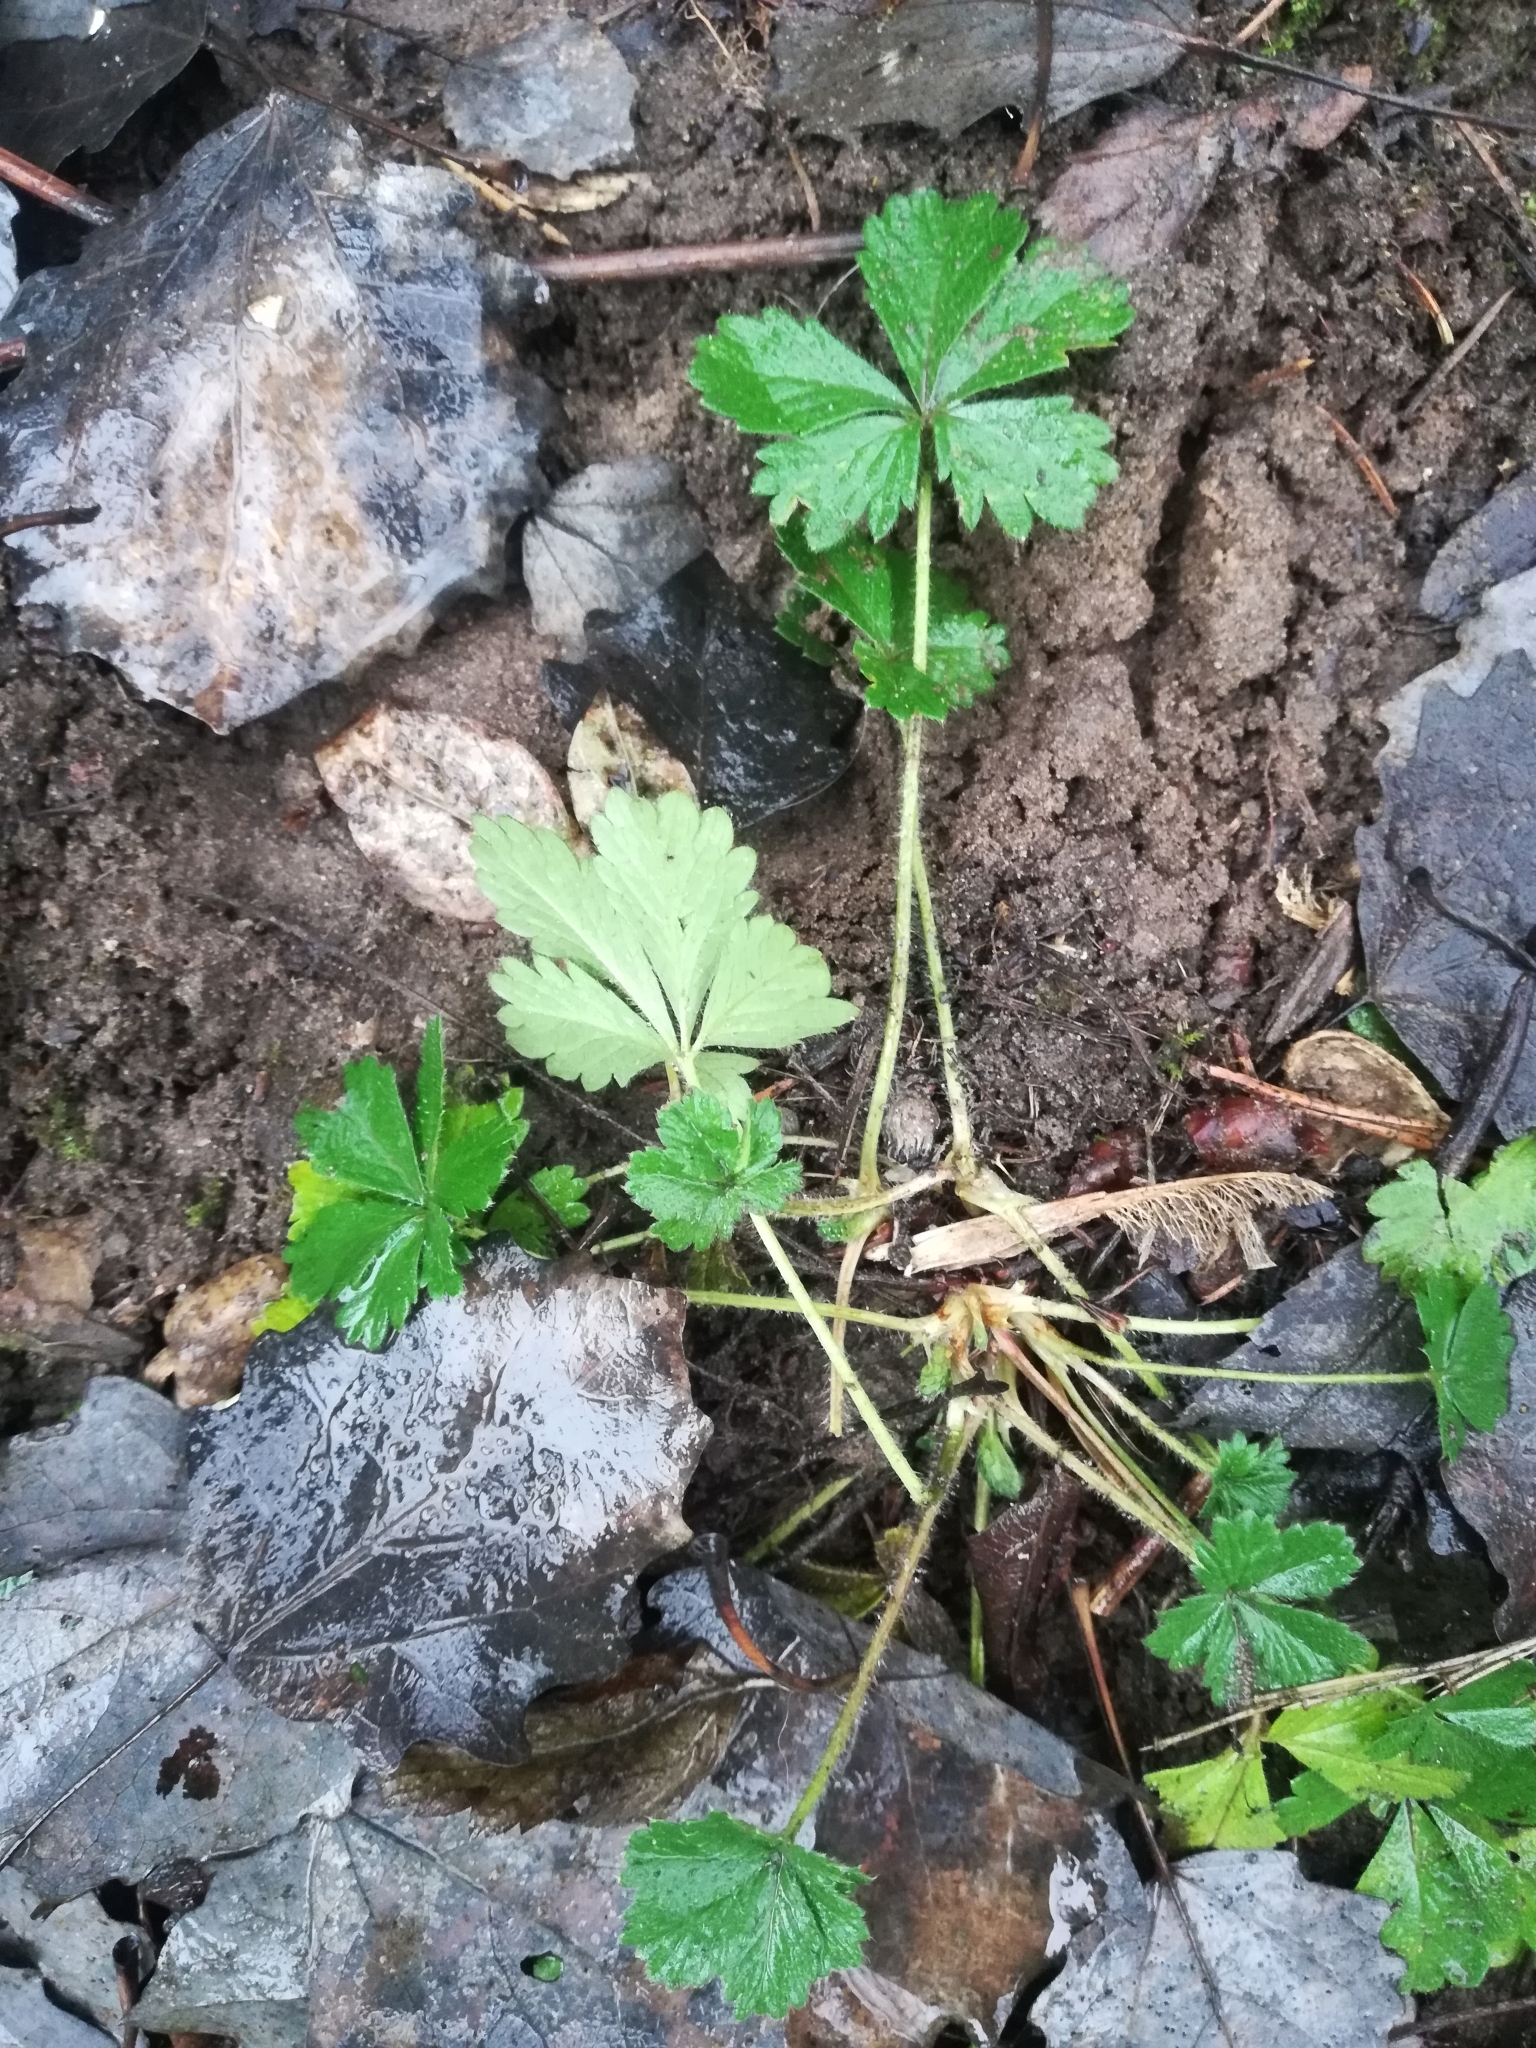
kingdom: Plantae
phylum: Tracheophyta
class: Magnoliopsida
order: Rosales
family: Rosaceae
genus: Potentilla
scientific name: Potentilla intermedia
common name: Downy cinquefoil
